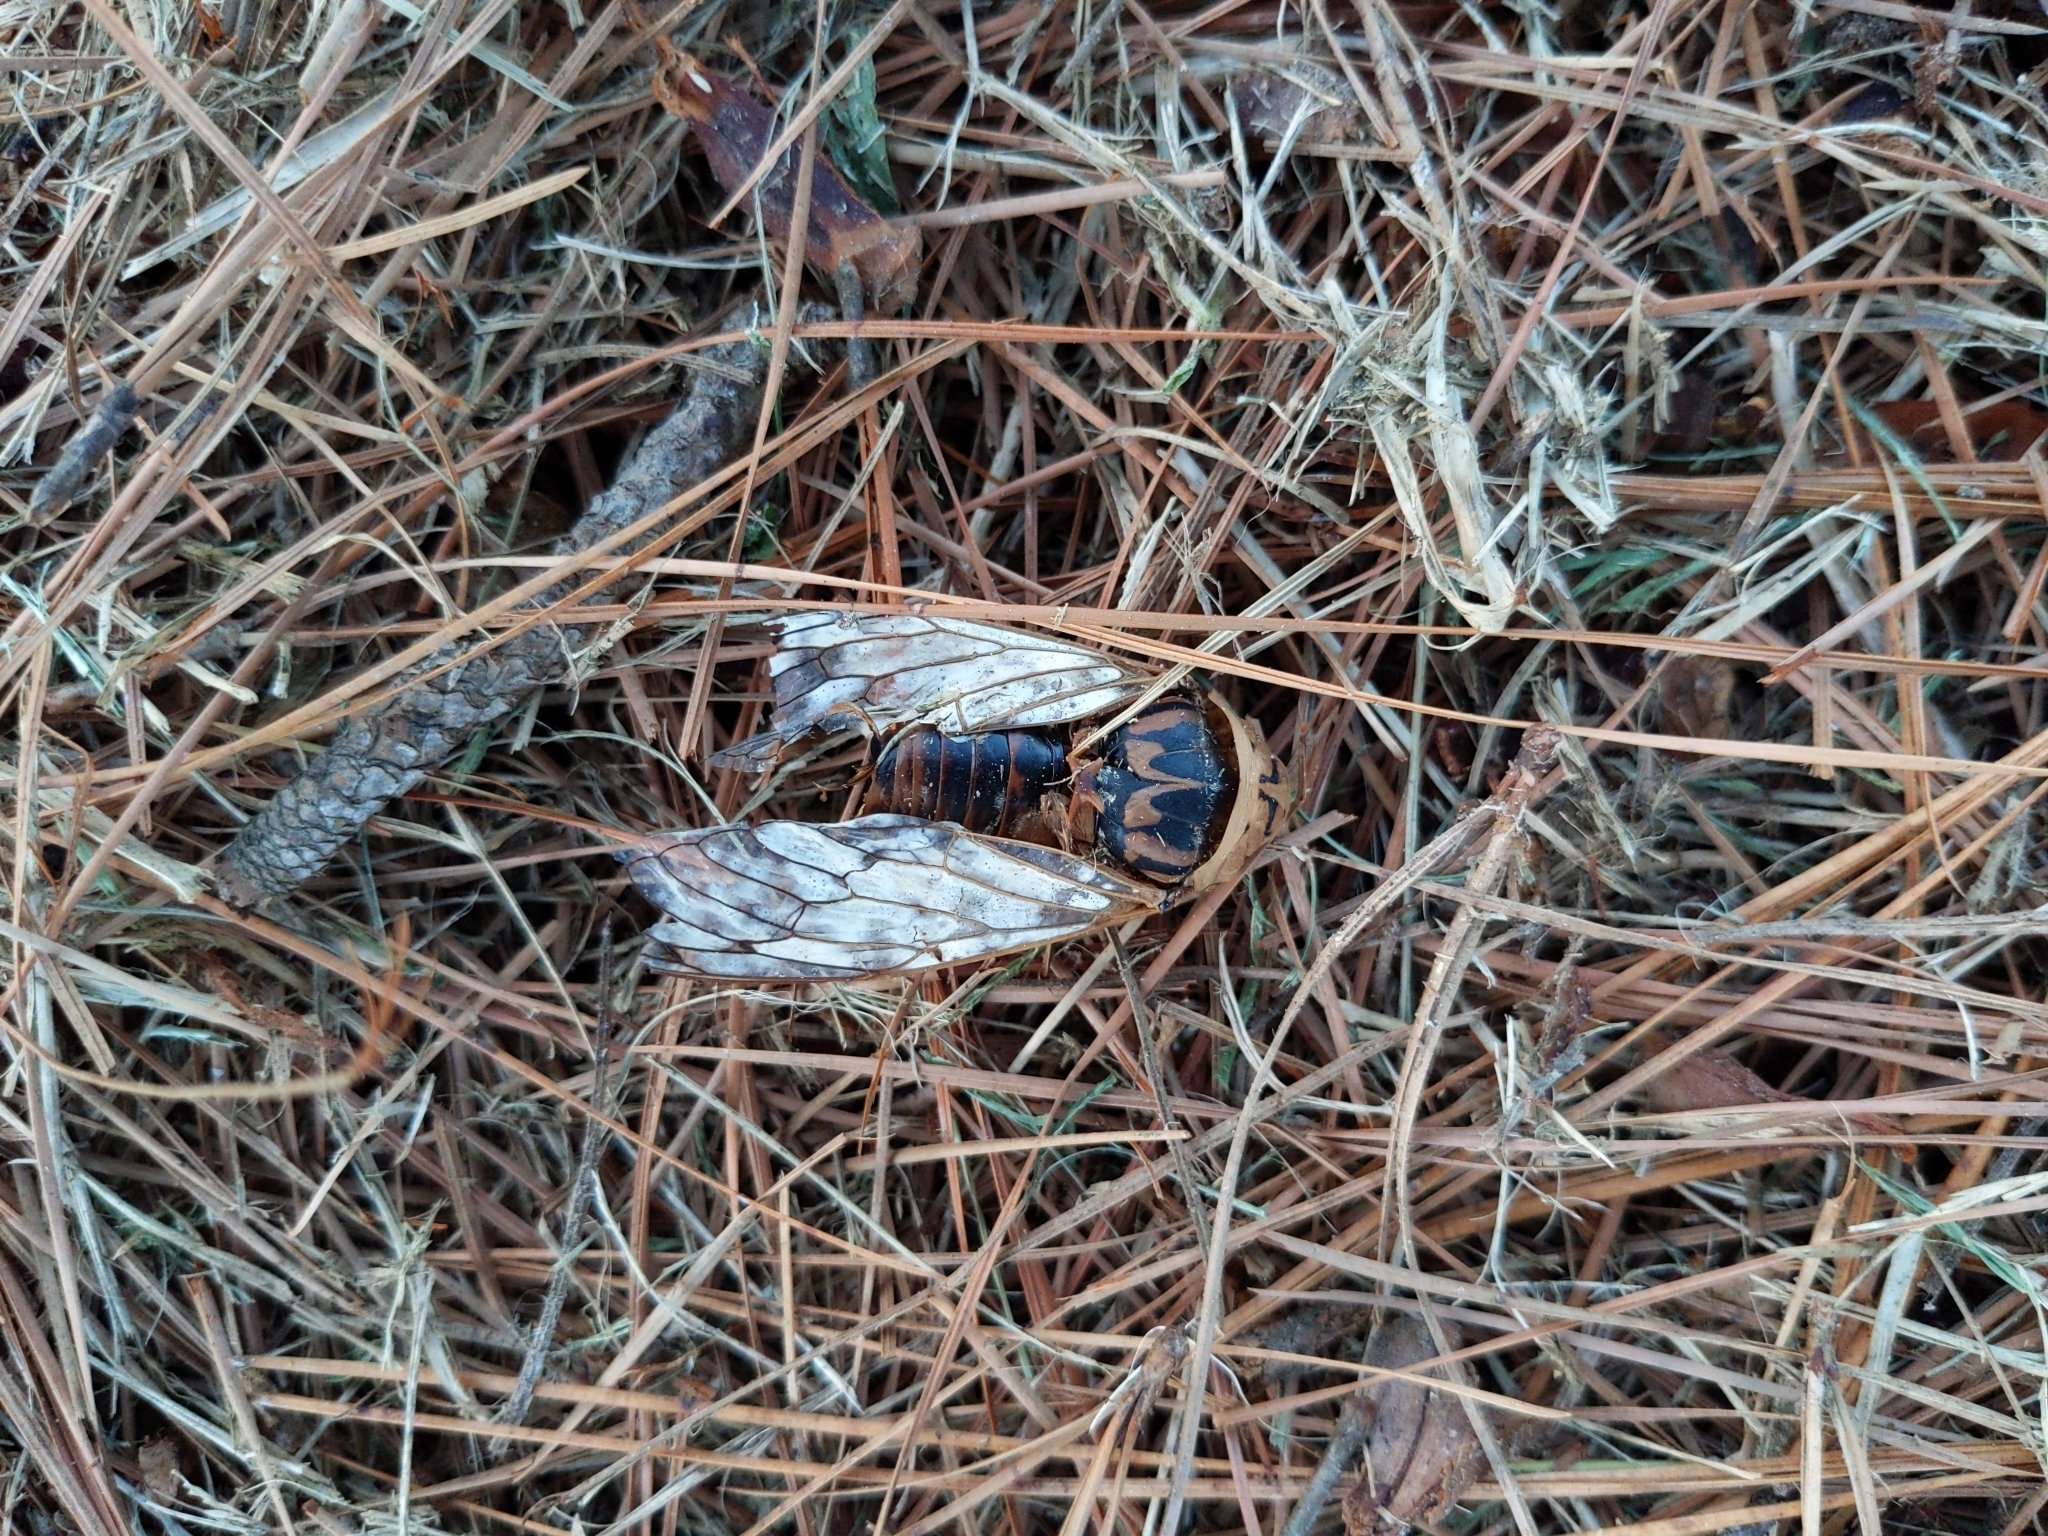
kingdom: Animalia
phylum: Arthropoda
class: Insecta
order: Hemiptera
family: Cicadidae
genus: Megatibicen
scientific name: Megatibicen resh
